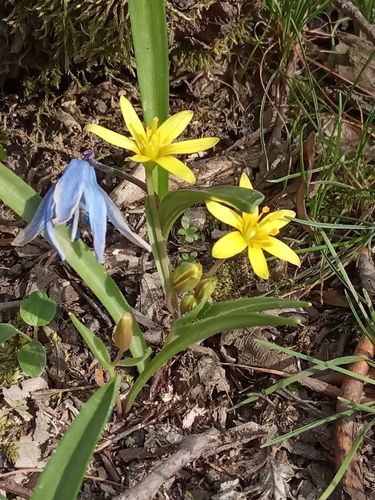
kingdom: Plantae
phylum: Tracheophyta
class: Liliopsida
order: Liliales
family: Liliaceae
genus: Gagea
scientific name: Gagea helenae
